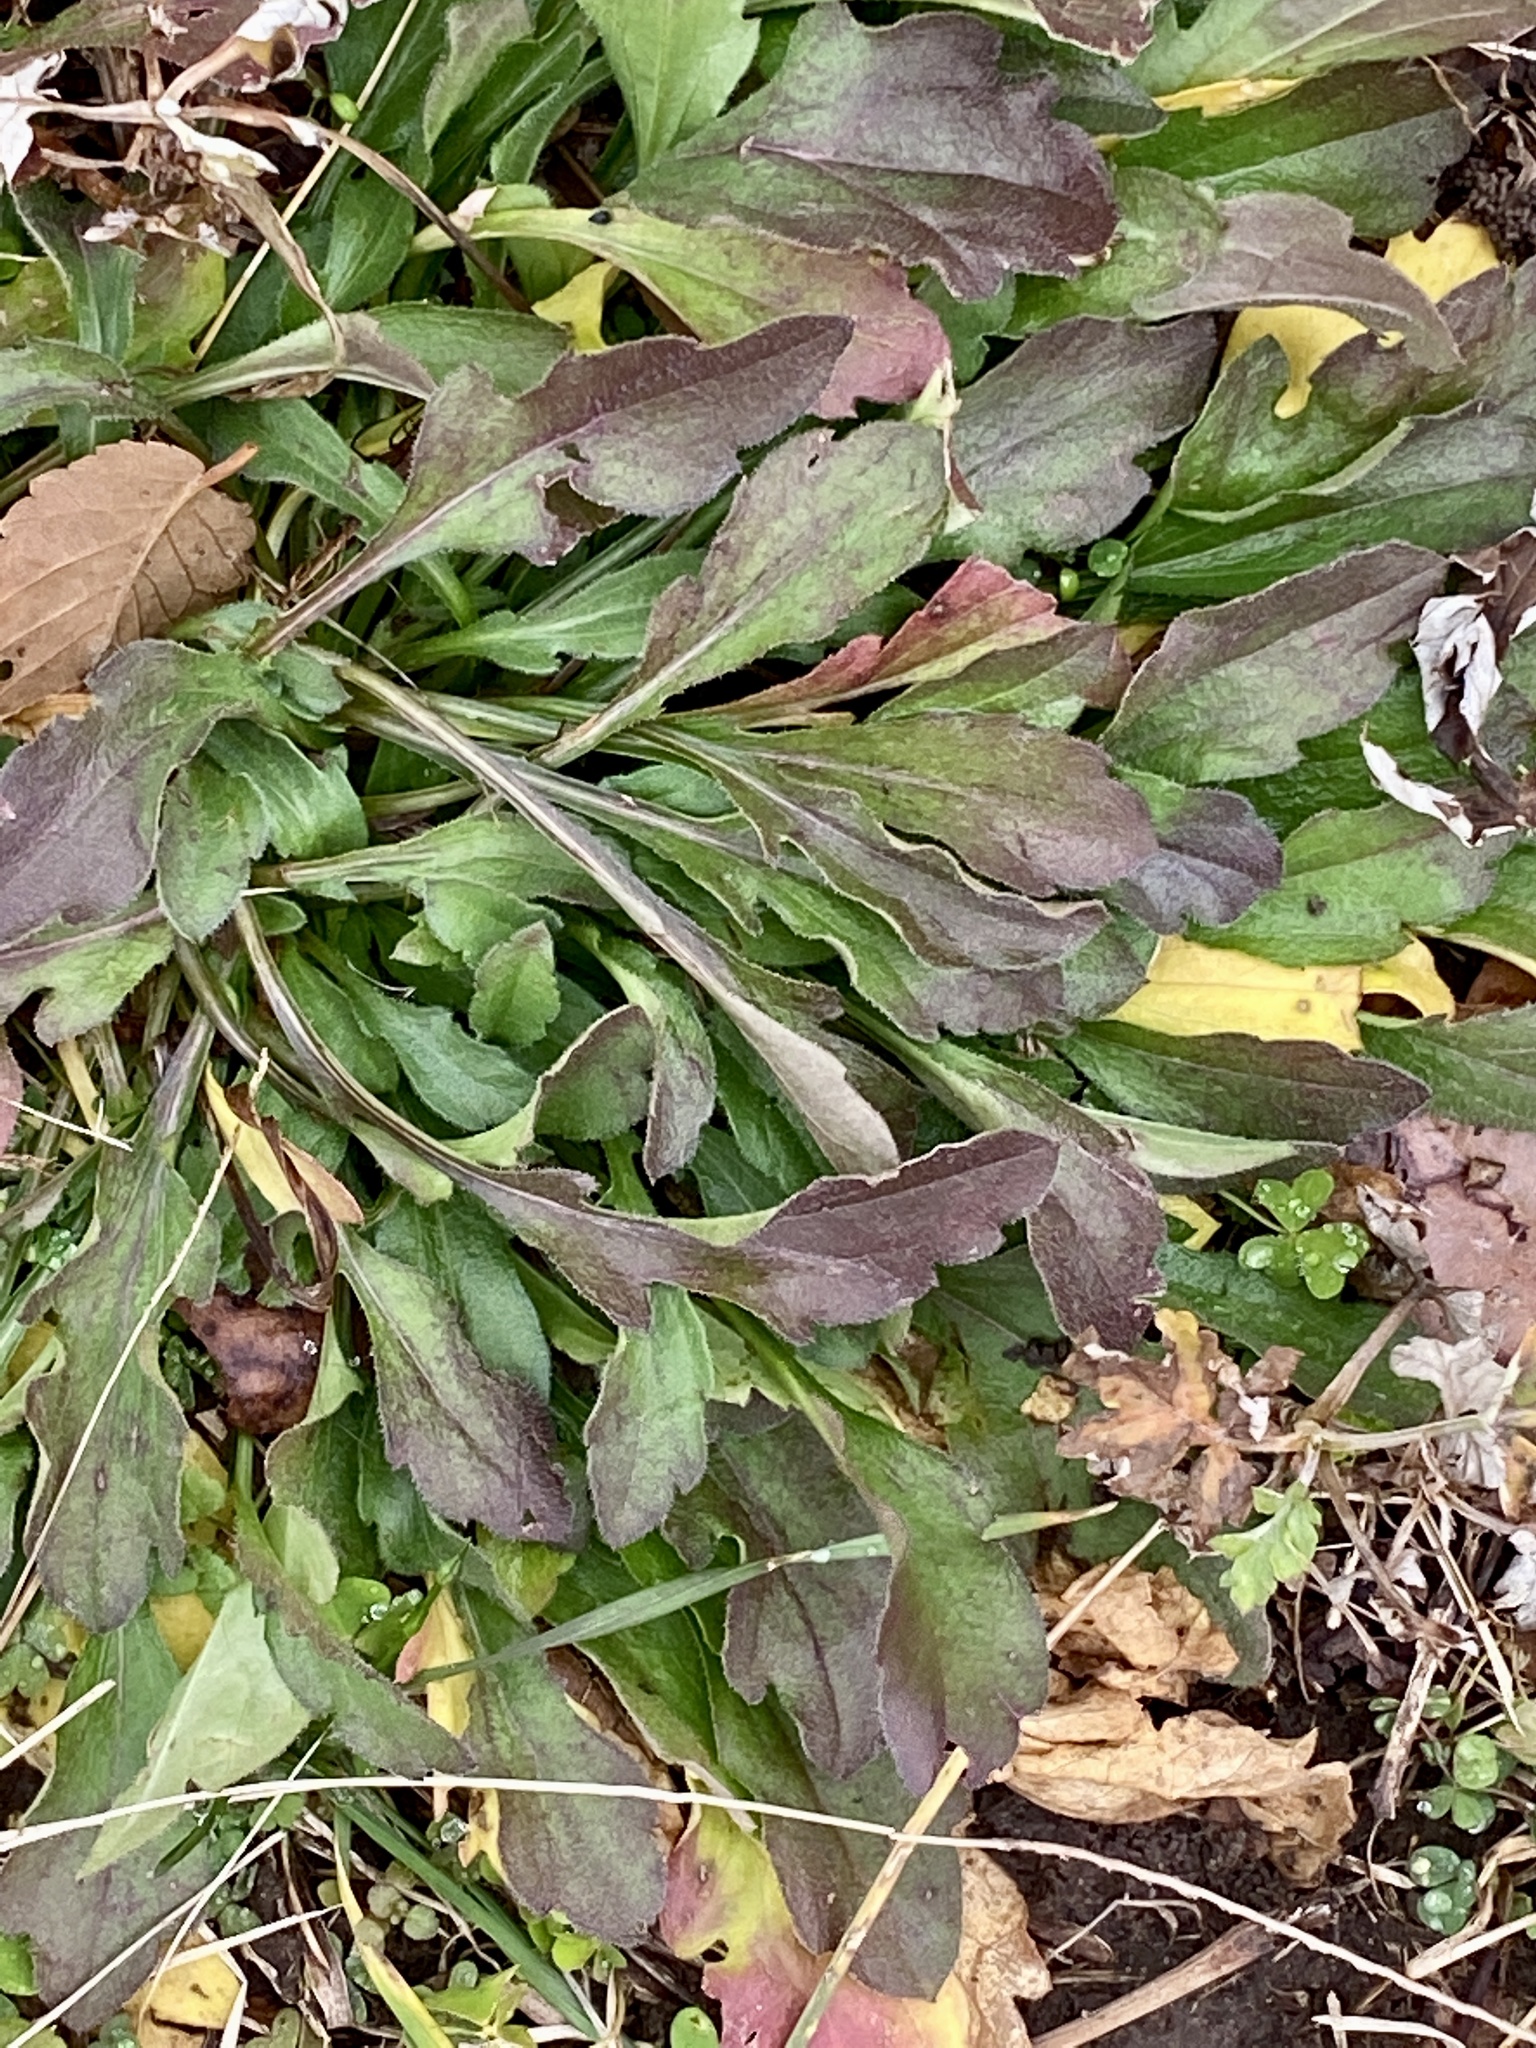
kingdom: Plantae
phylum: Tracheophyta
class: Magnoliopsida
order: Asterales
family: Asteraceae
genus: Erigeron
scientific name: Erigeron canadensis
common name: Canadian fleabane
